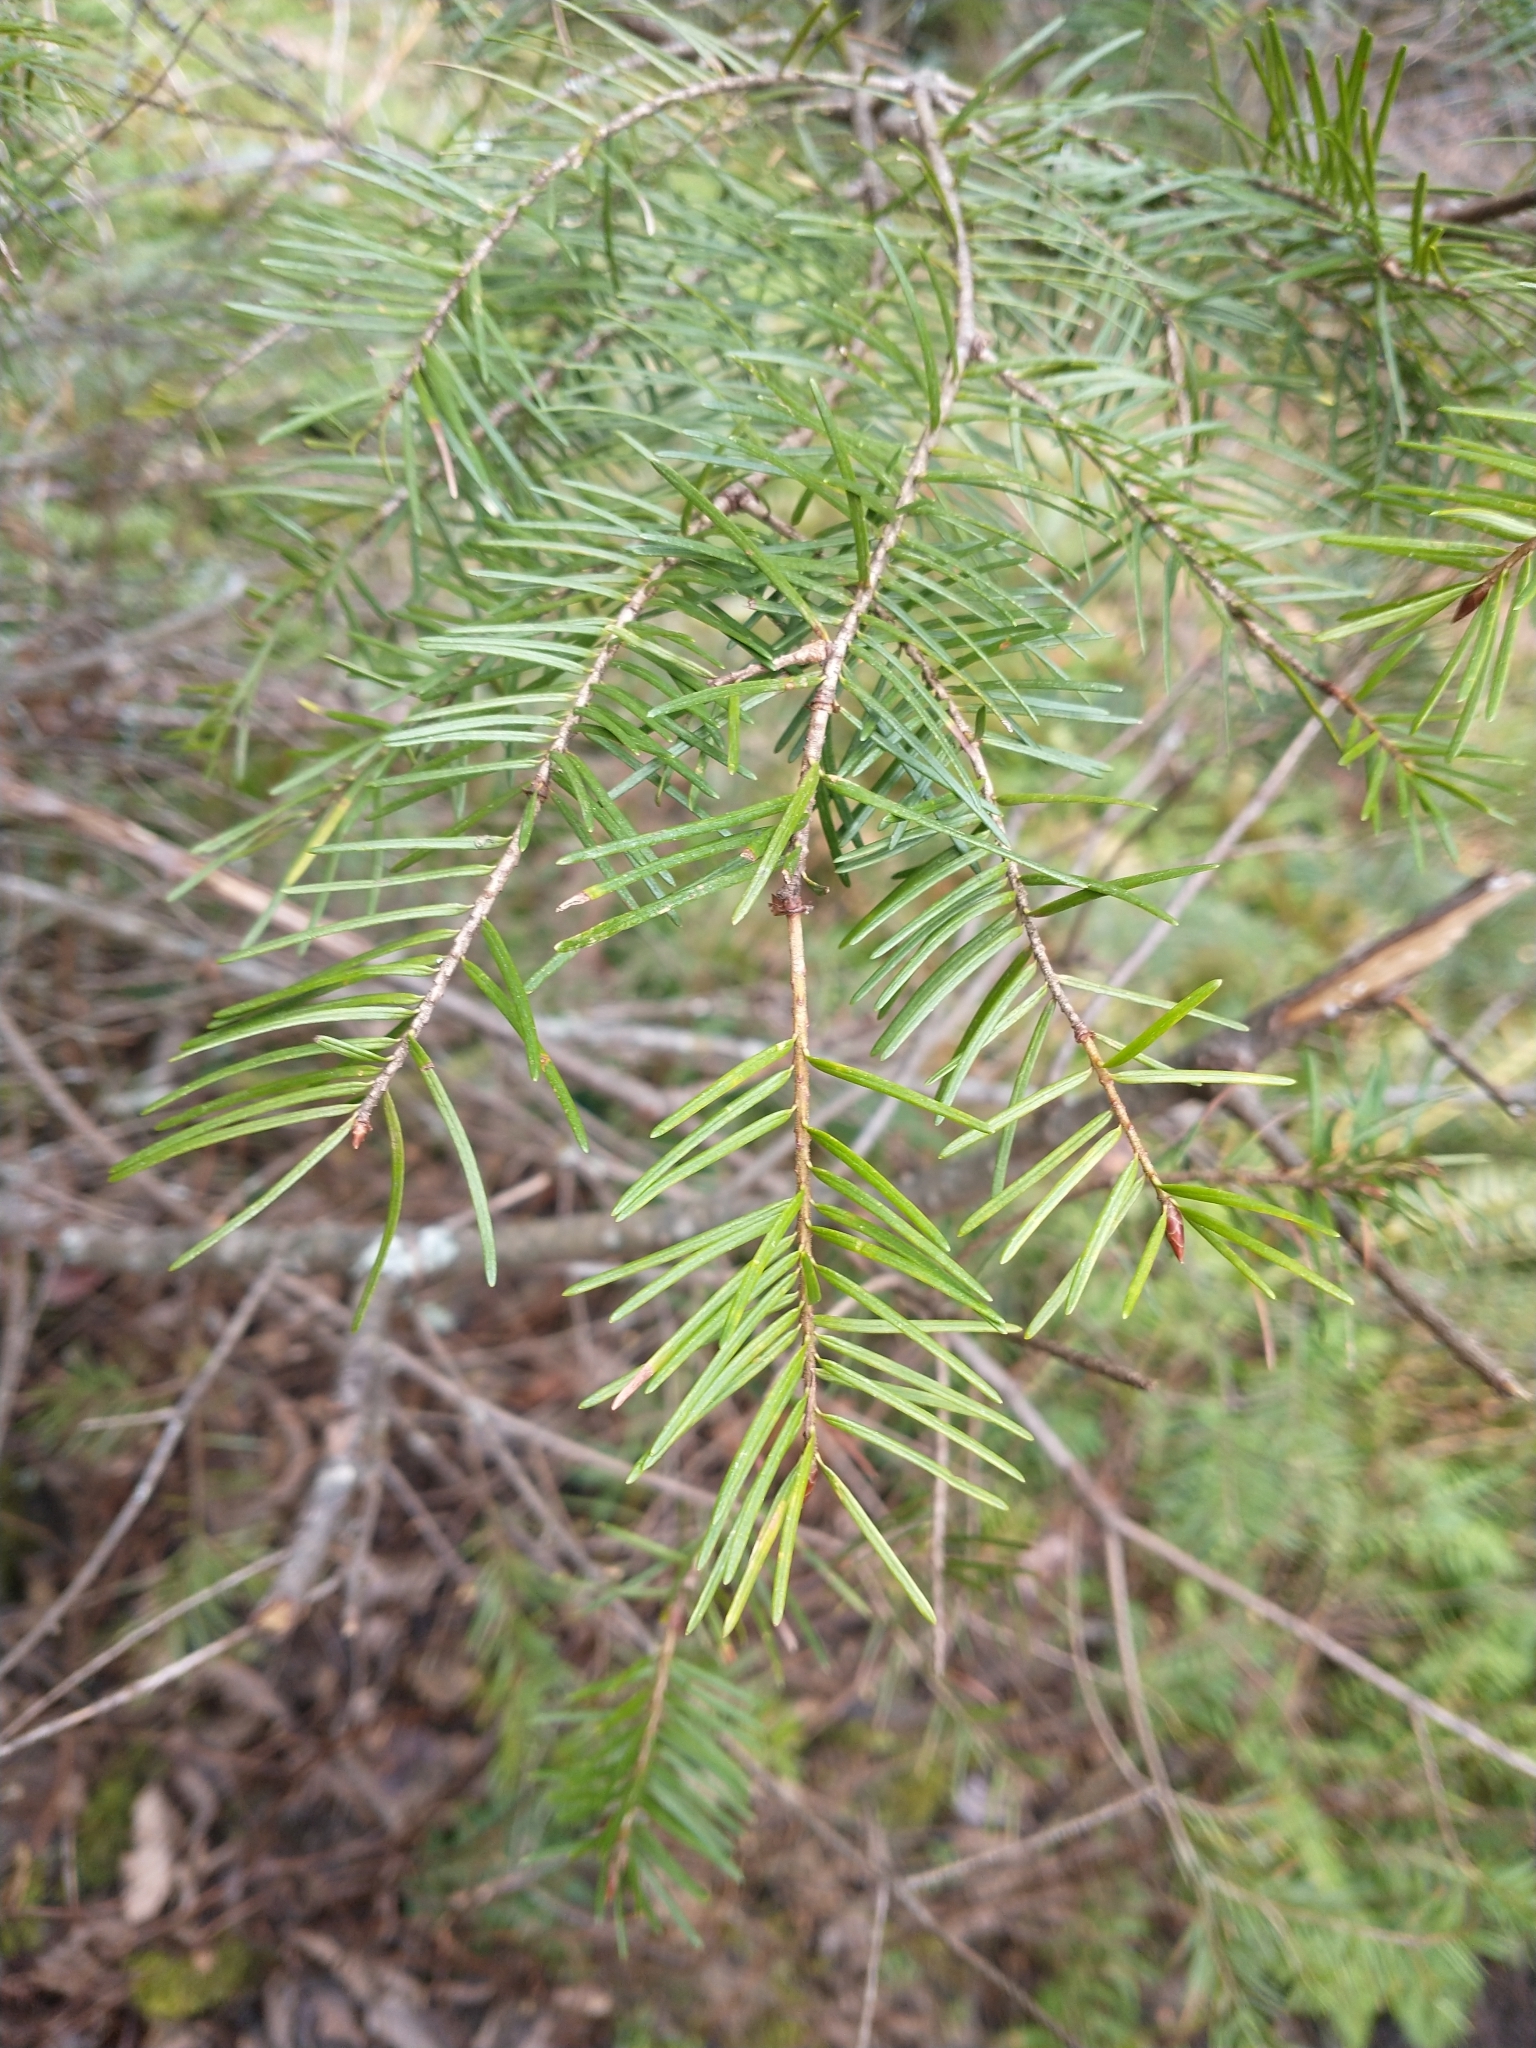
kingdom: Plantae
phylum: Tracheophyta
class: Pinopsida
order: Pinales
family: Pinaceae
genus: Pseudotsuga
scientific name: Pseudotsuga menziesii
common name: Douglas fir
